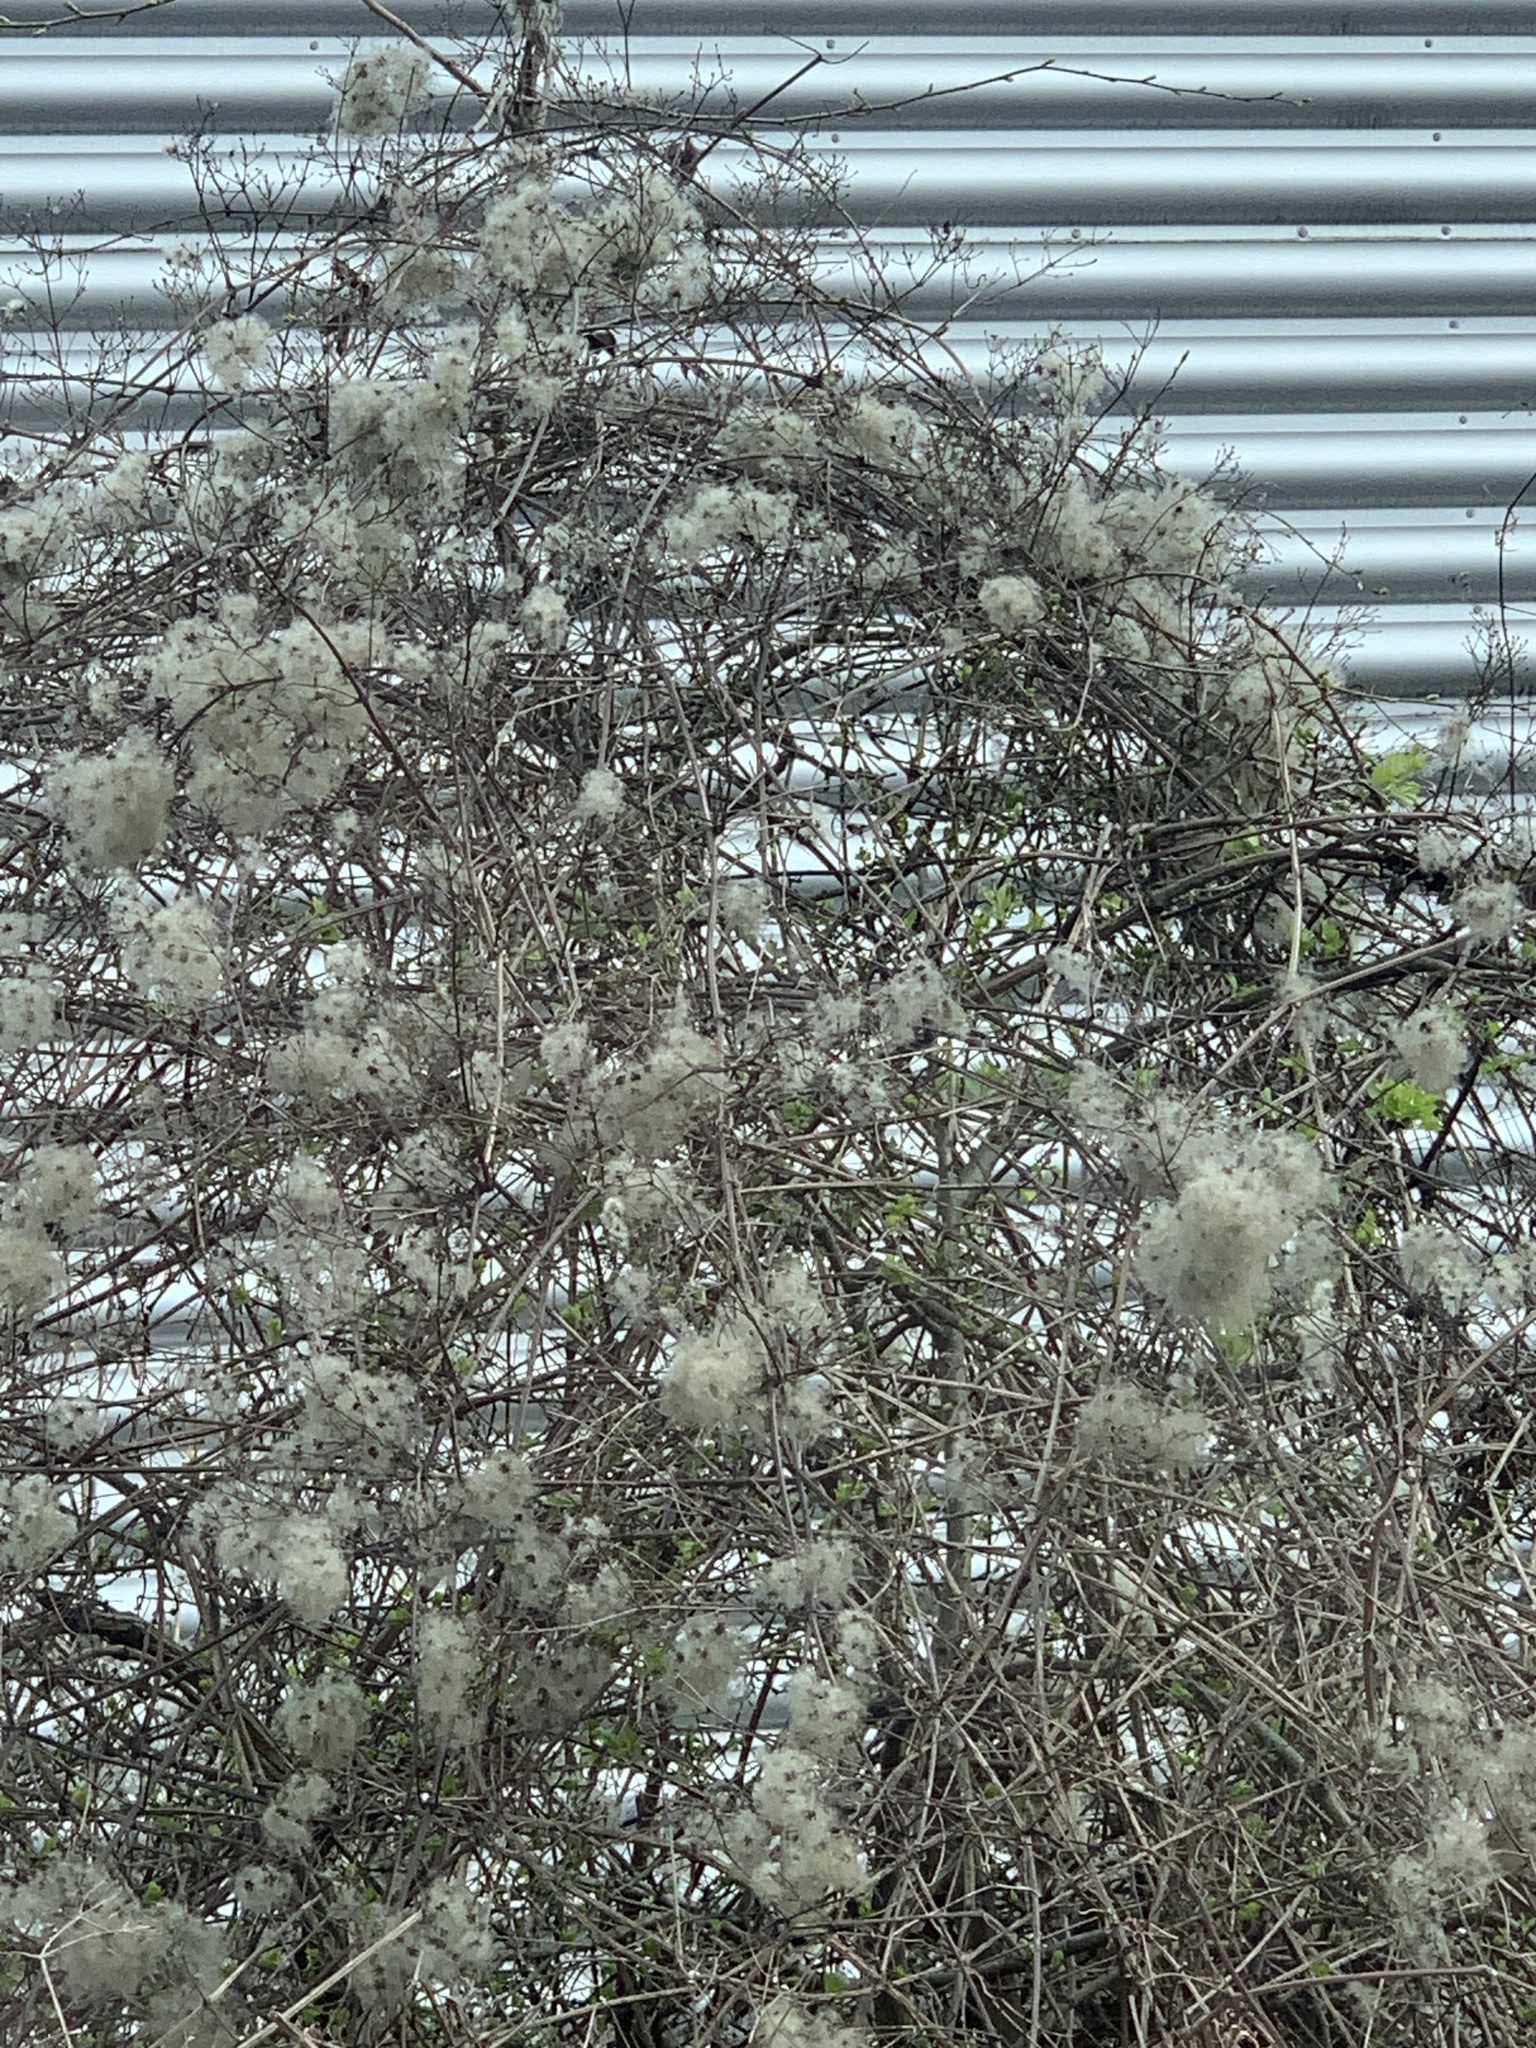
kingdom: Plantae
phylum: Tracheophyta
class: Magnoliopsida
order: Ranunculales
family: Ranunculaceae
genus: Clematis
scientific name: Clematis vitalba
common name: Evergreen clematis
